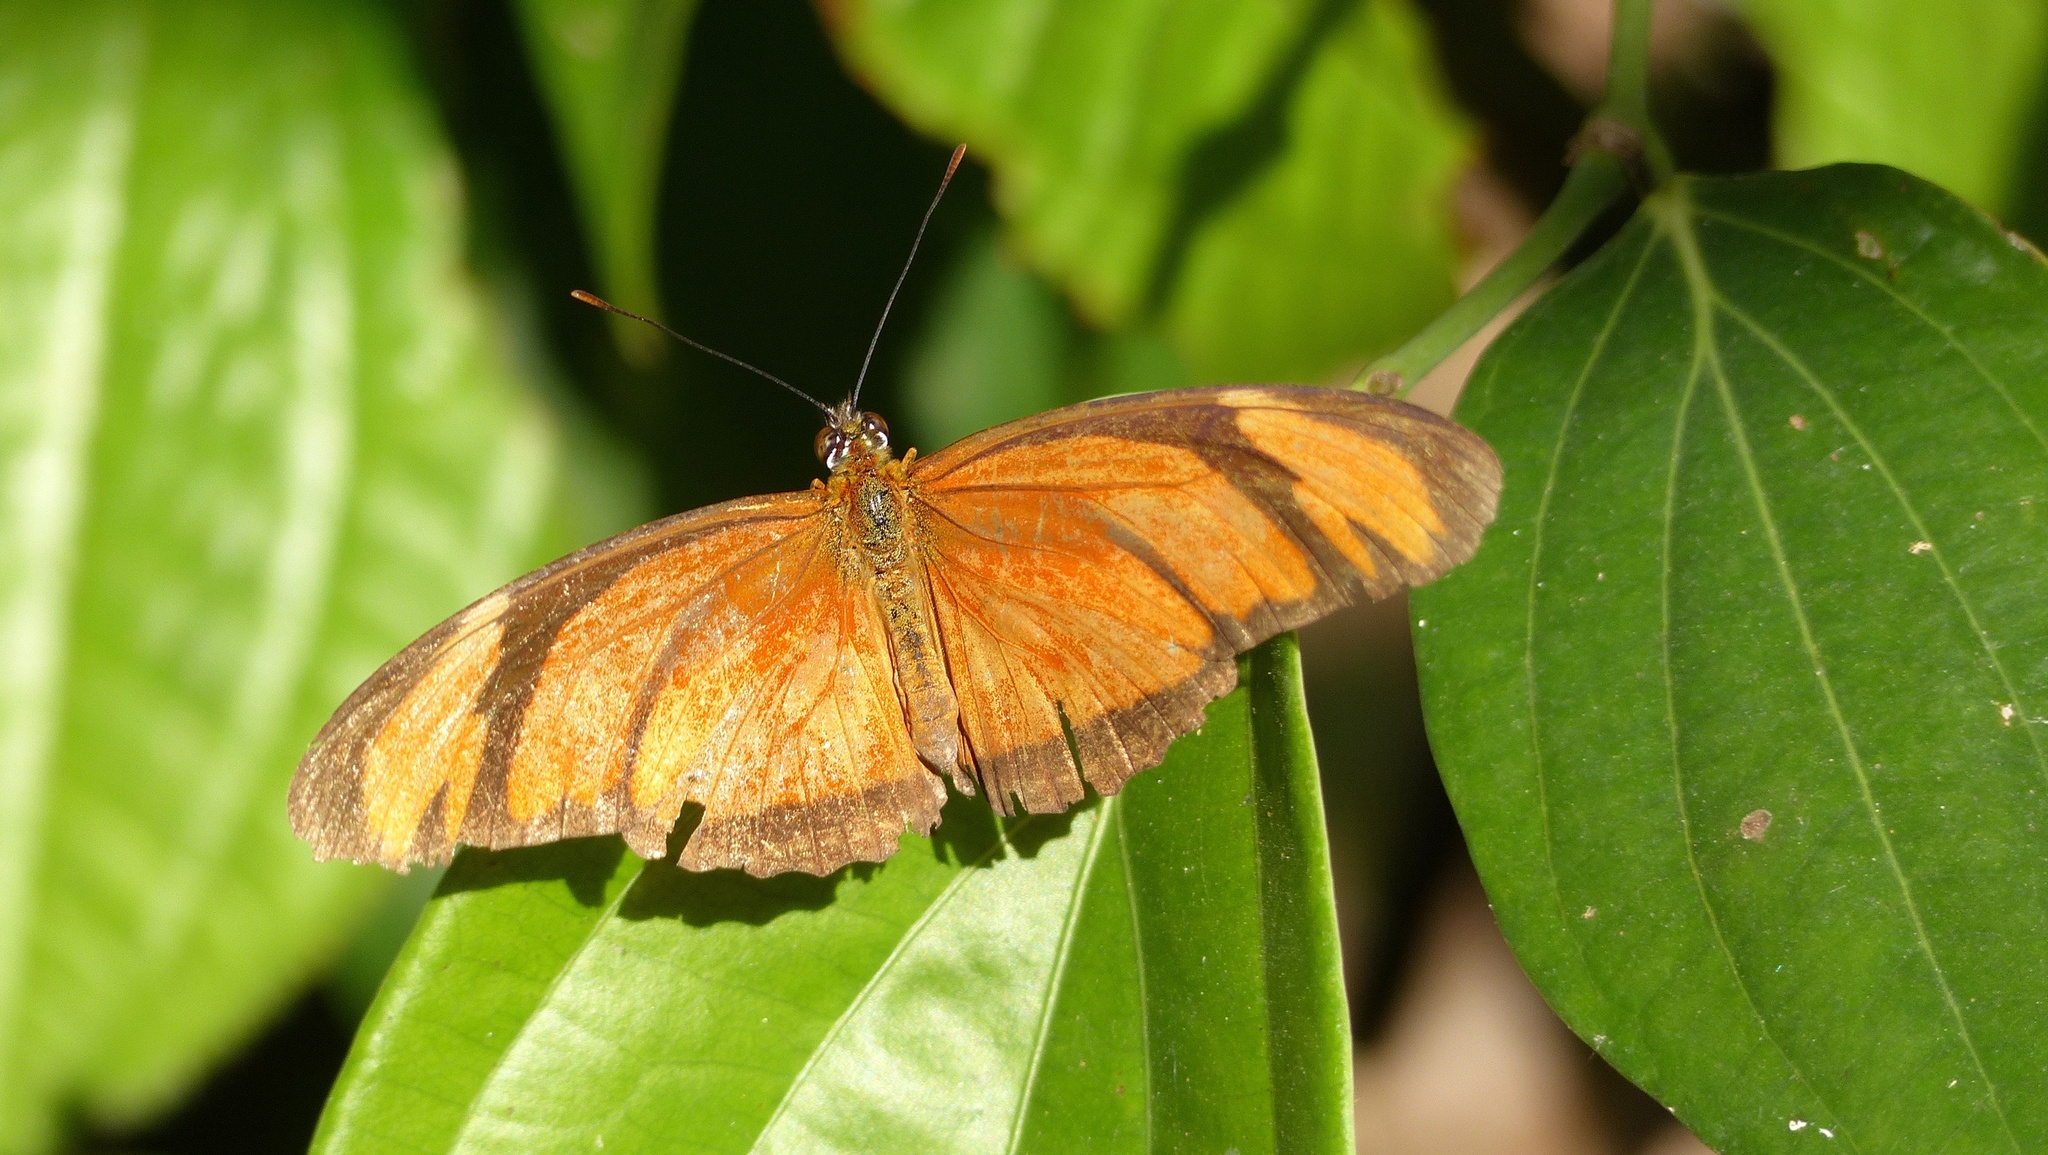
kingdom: Animalia
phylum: Arthropoda
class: Insecta
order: Lepidoptera
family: Nymphalidae
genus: Dryas
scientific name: Dryas iulia
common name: Flambeau
